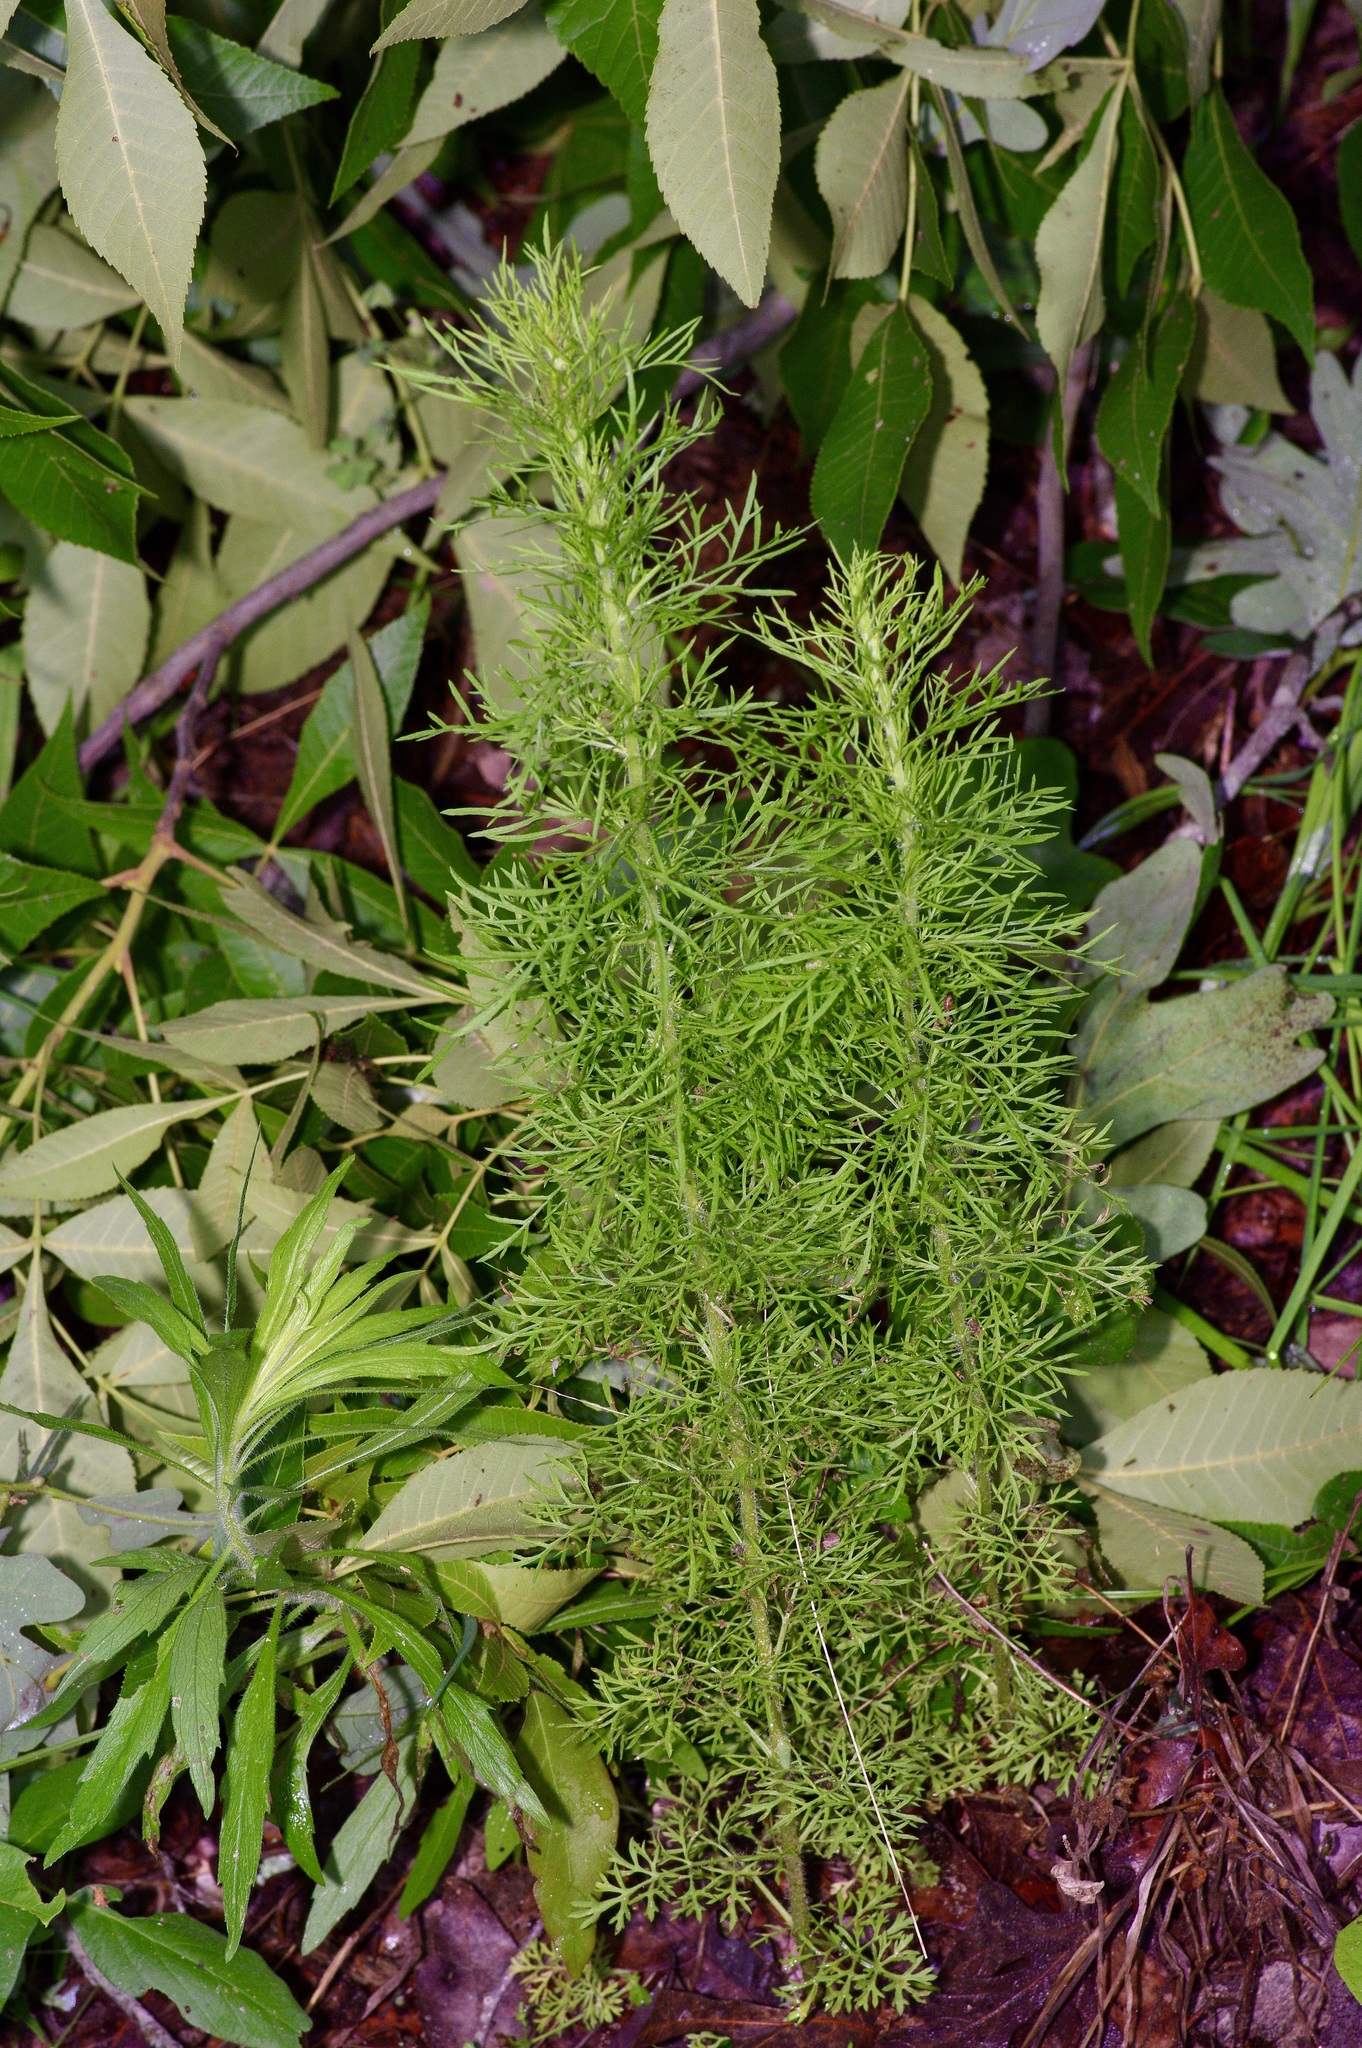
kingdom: Plantae
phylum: Tracheophyta
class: Magnoliopsida
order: Asterales
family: Asteraceae
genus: Eupatorium
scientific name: Eupatorium capillifolium
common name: Dog-fennel
